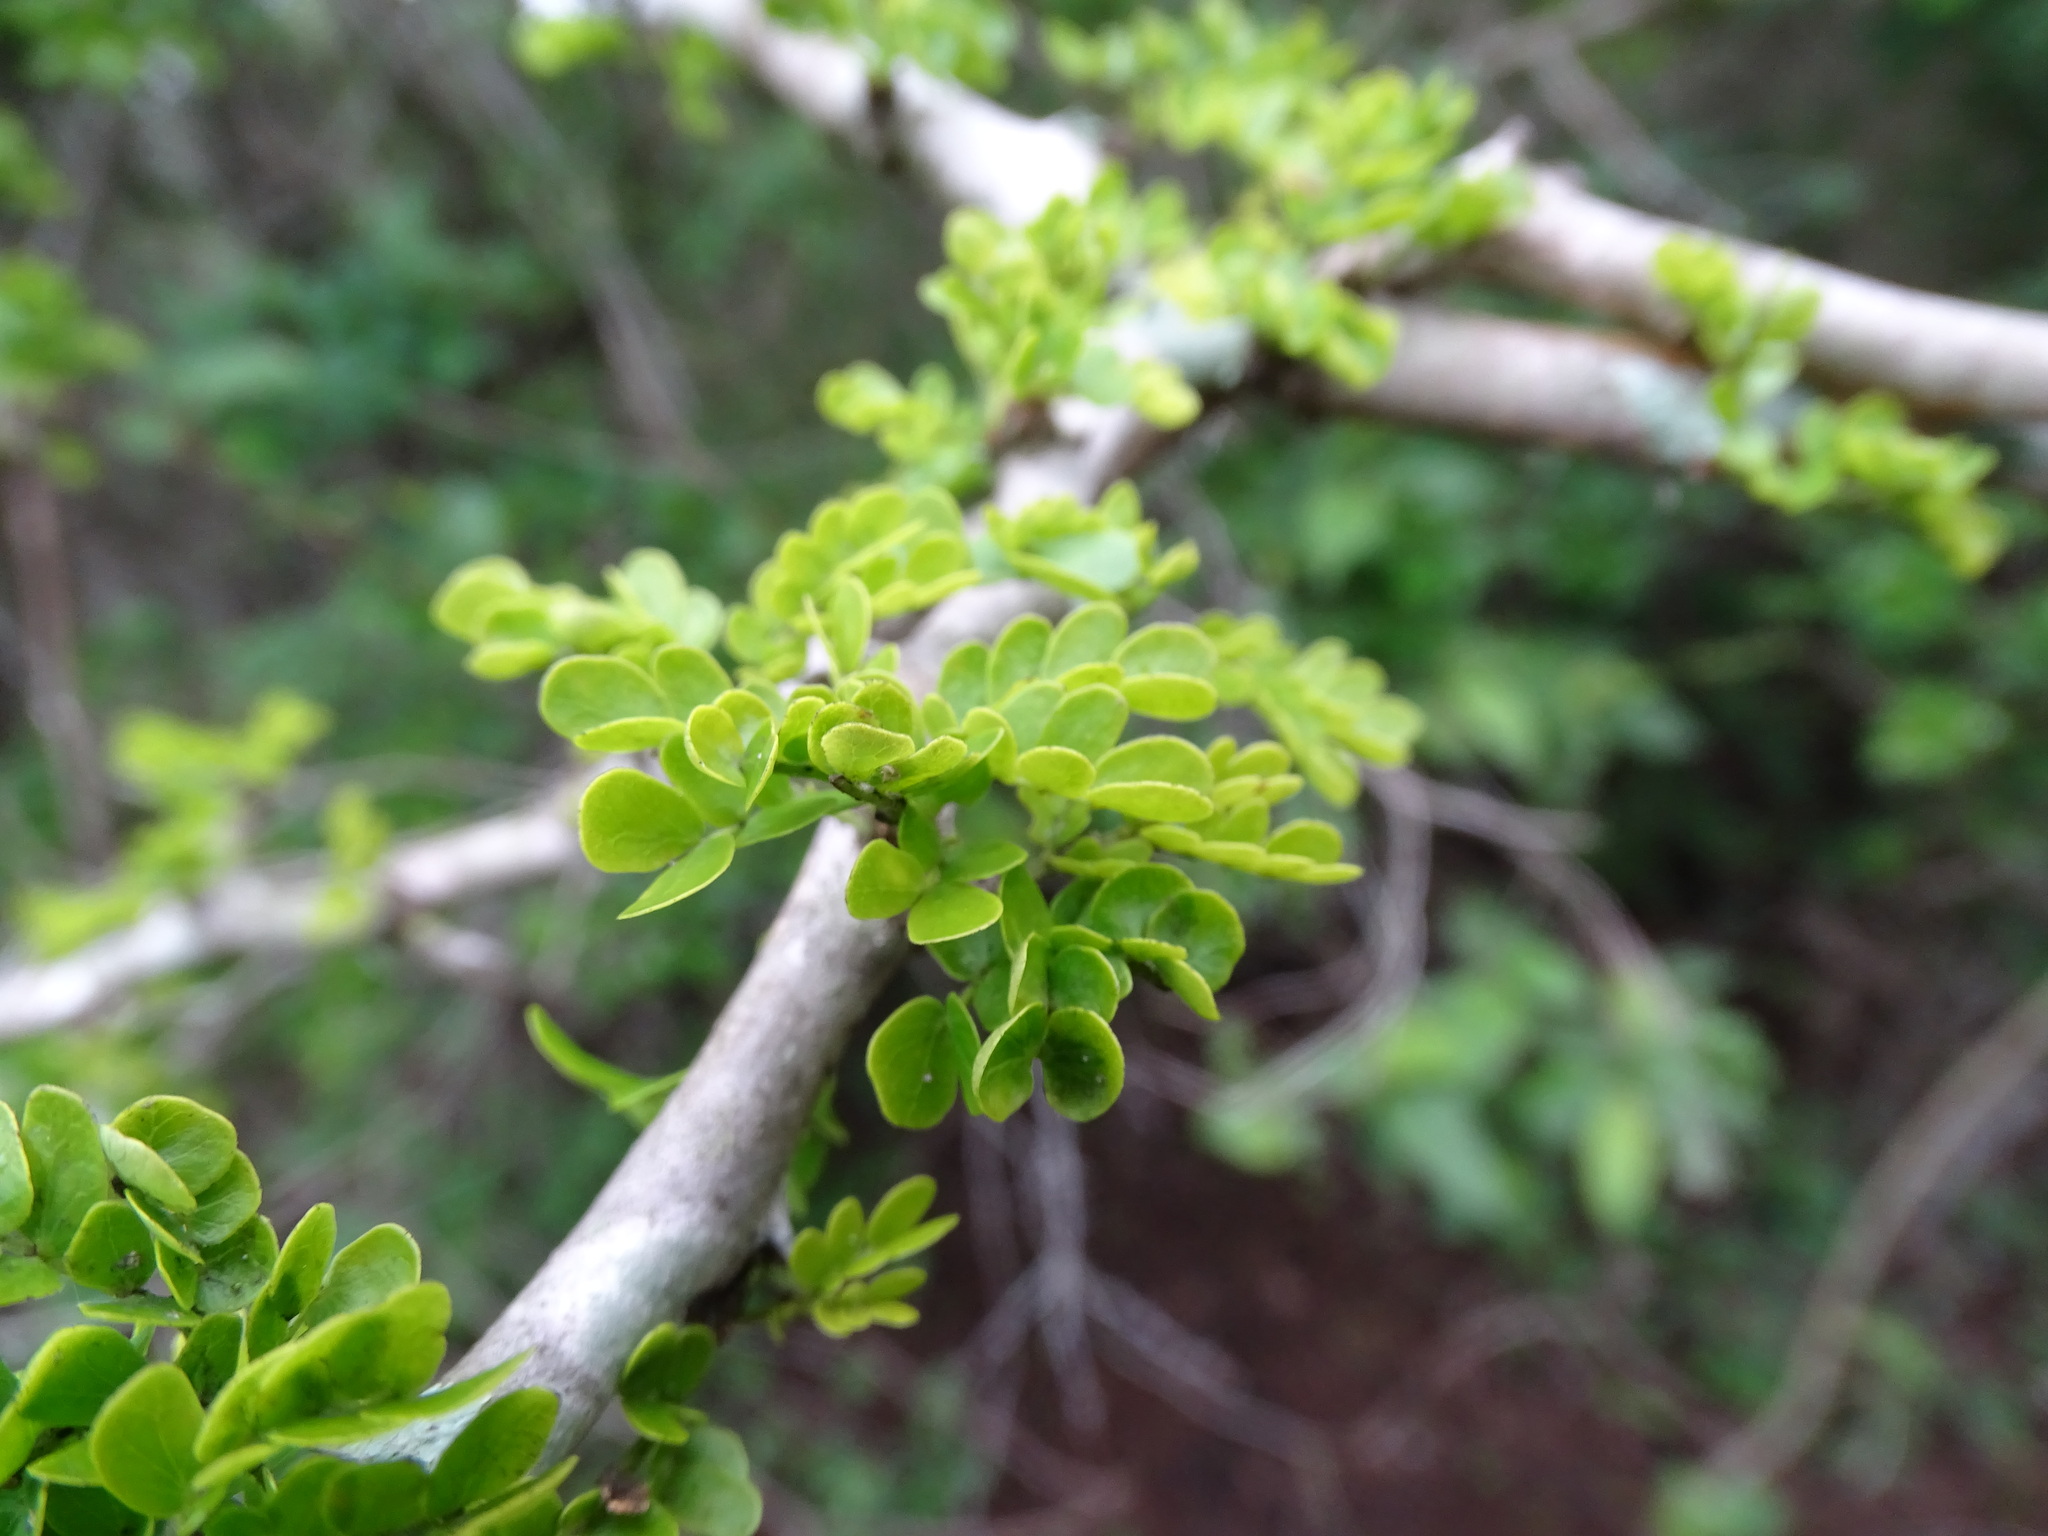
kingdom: Plantae
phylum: Tracheophyta
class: Magnoliopsida
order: Fabales
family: Fabaceae
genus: Ebenopsis
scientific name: Ebenopsis ebano
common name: Ebony blackbead
